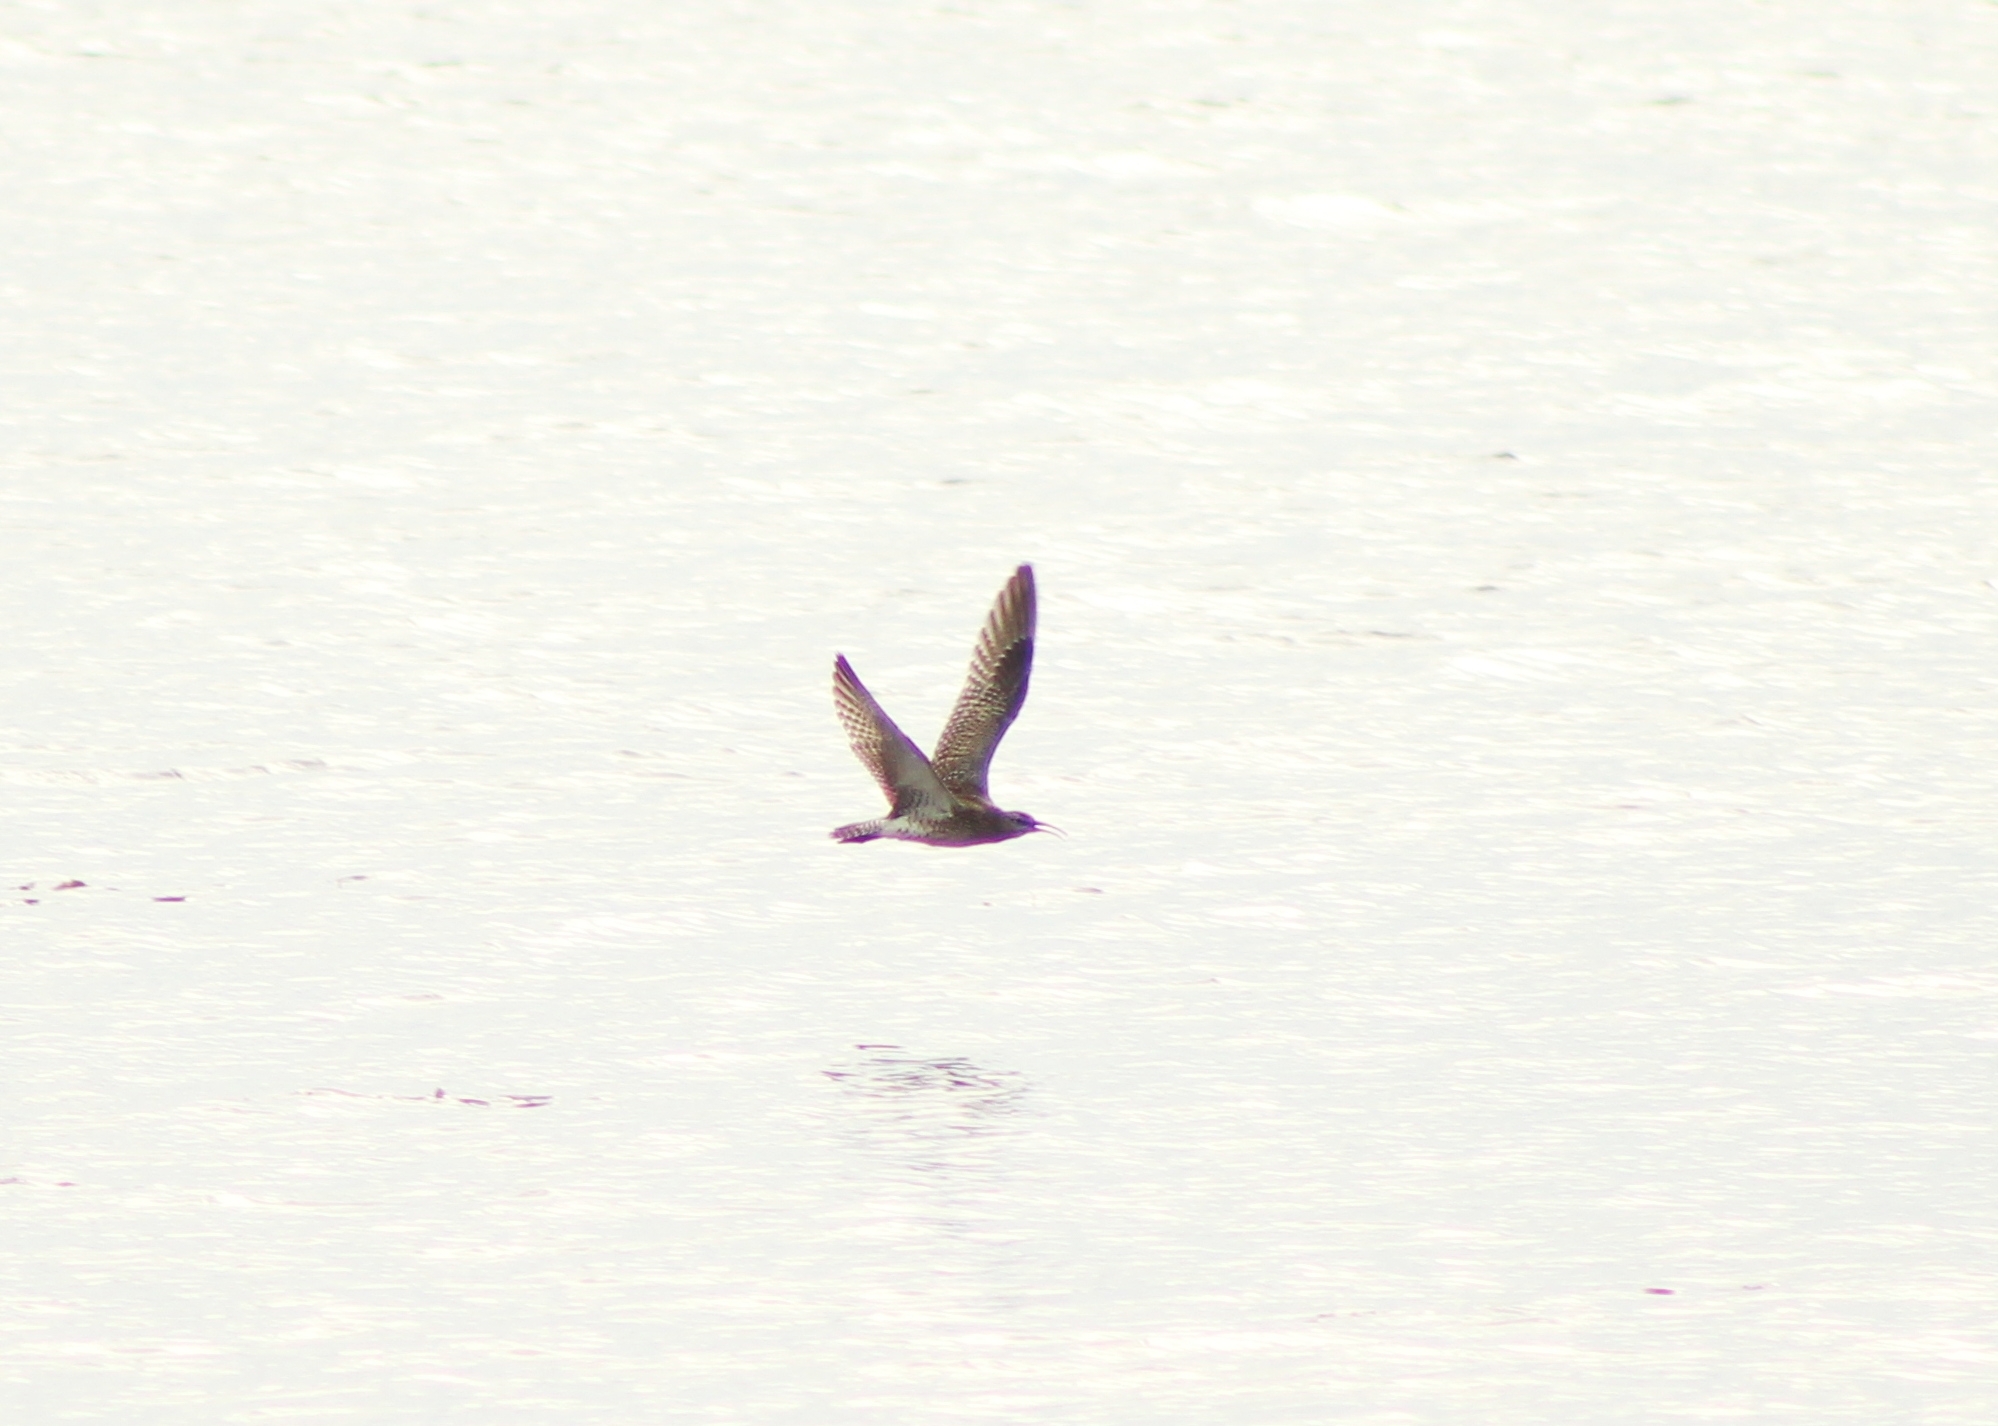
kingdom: Animalia
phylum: Chordata
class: Aves
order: Charadriiformes
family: Scolopacidae
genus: Numenius
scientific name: Numenius phaeopus
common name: Whimbrel
